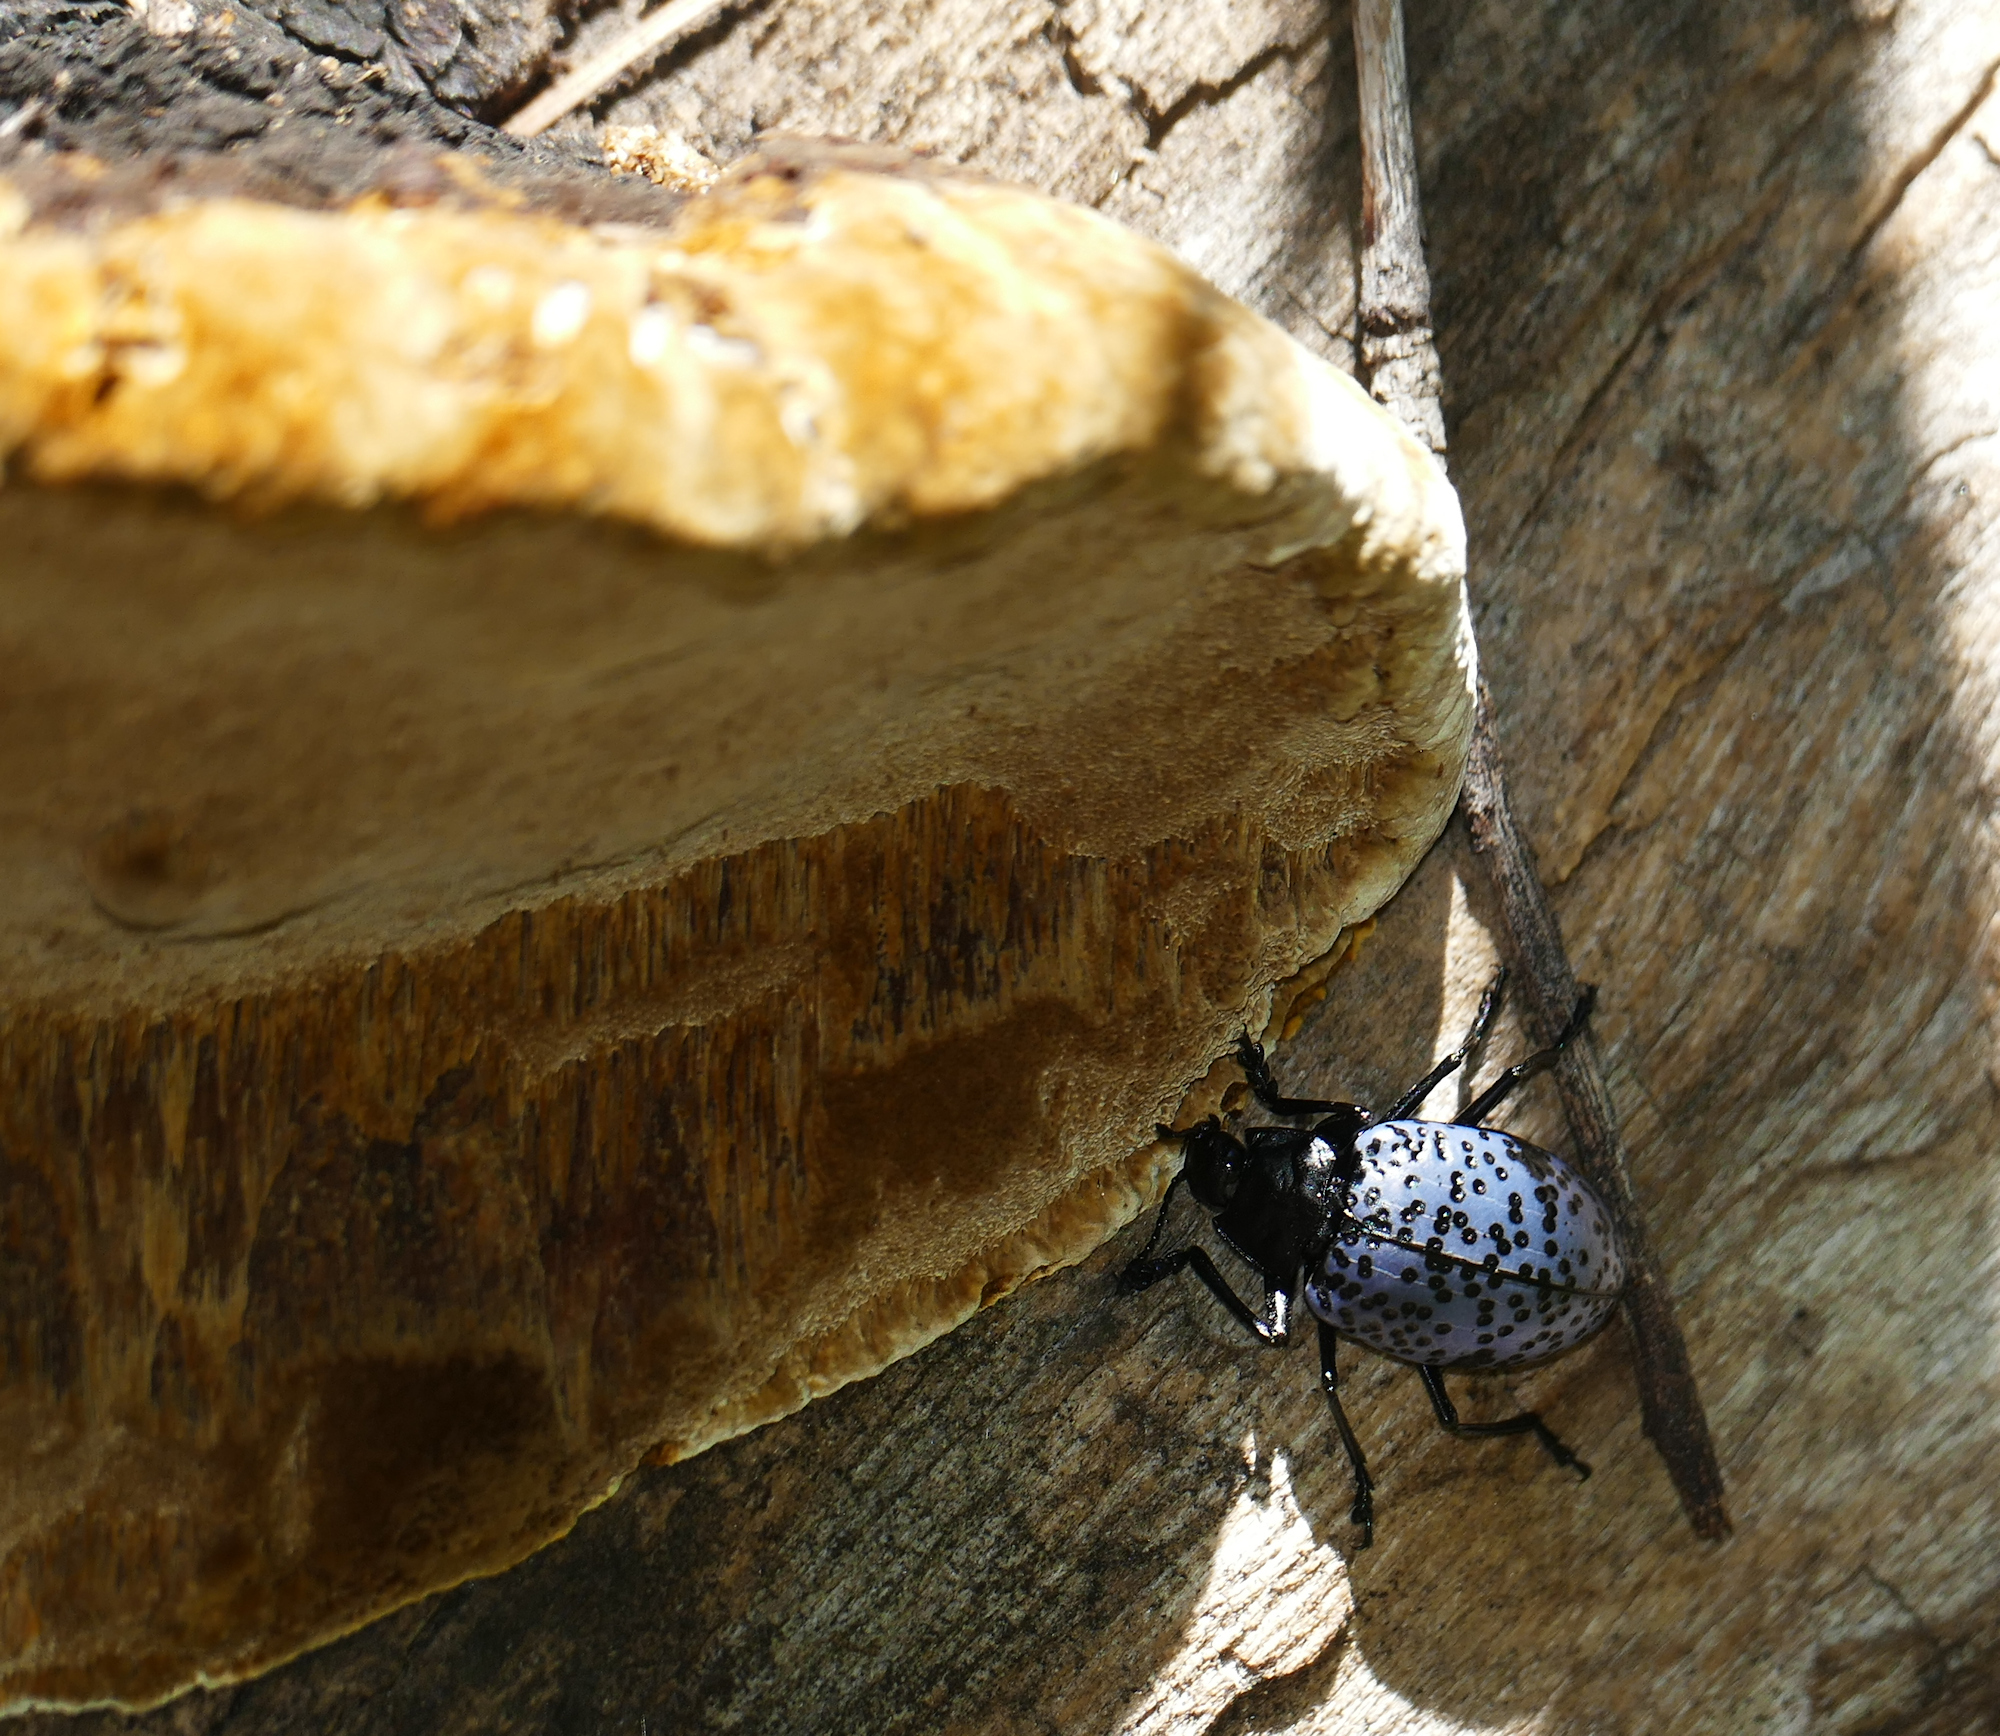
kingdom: Animalia
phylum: Arthropoda
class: Insecta
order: Coleoptera
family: Erotylidae
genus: Gibbifer
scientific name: Gibbifer californicus
